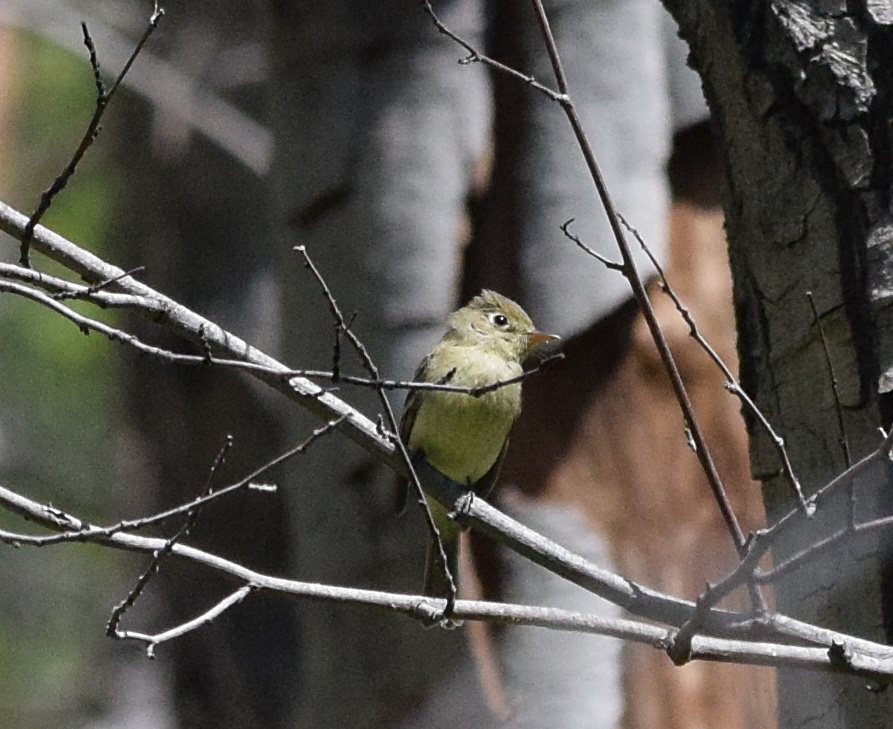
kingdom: Animalia
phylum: Chordata
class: Aves
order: Passeriformes
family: Tyrannidae
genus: Empidonax
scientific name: Empidonax difficilis
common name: Pacific-slope flycatcher
